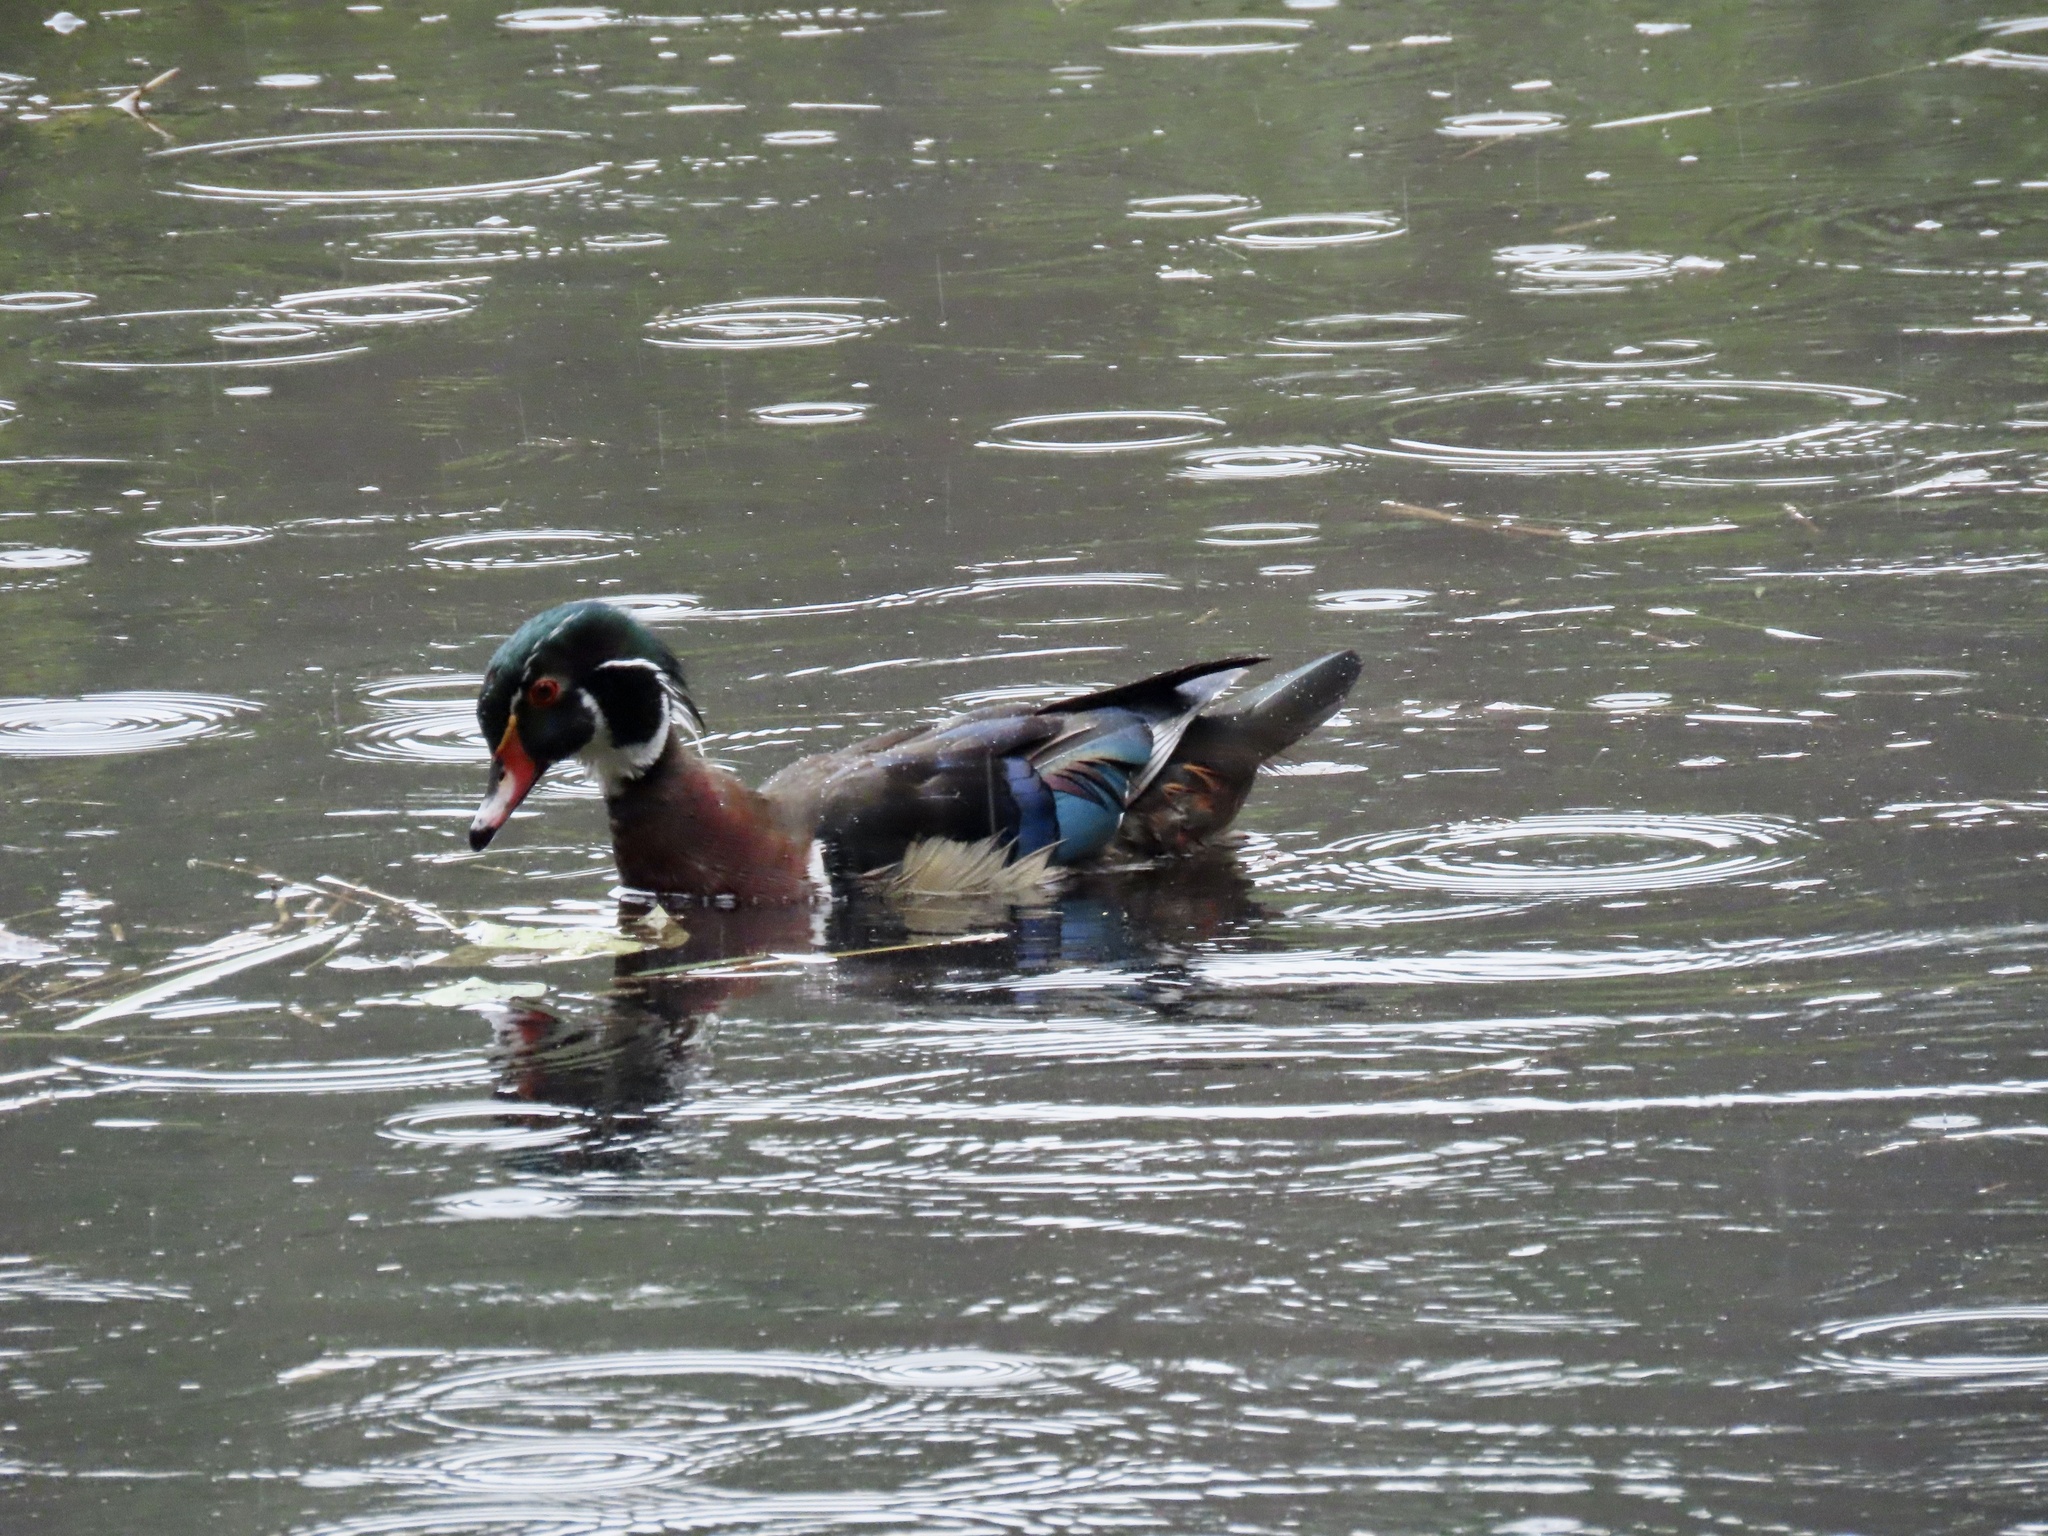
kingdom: Animalia
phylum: Chordata
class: Aves
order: Anseriformes
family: Anatidae
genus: Aix
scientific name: Aix sponsa
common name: Wood duck
